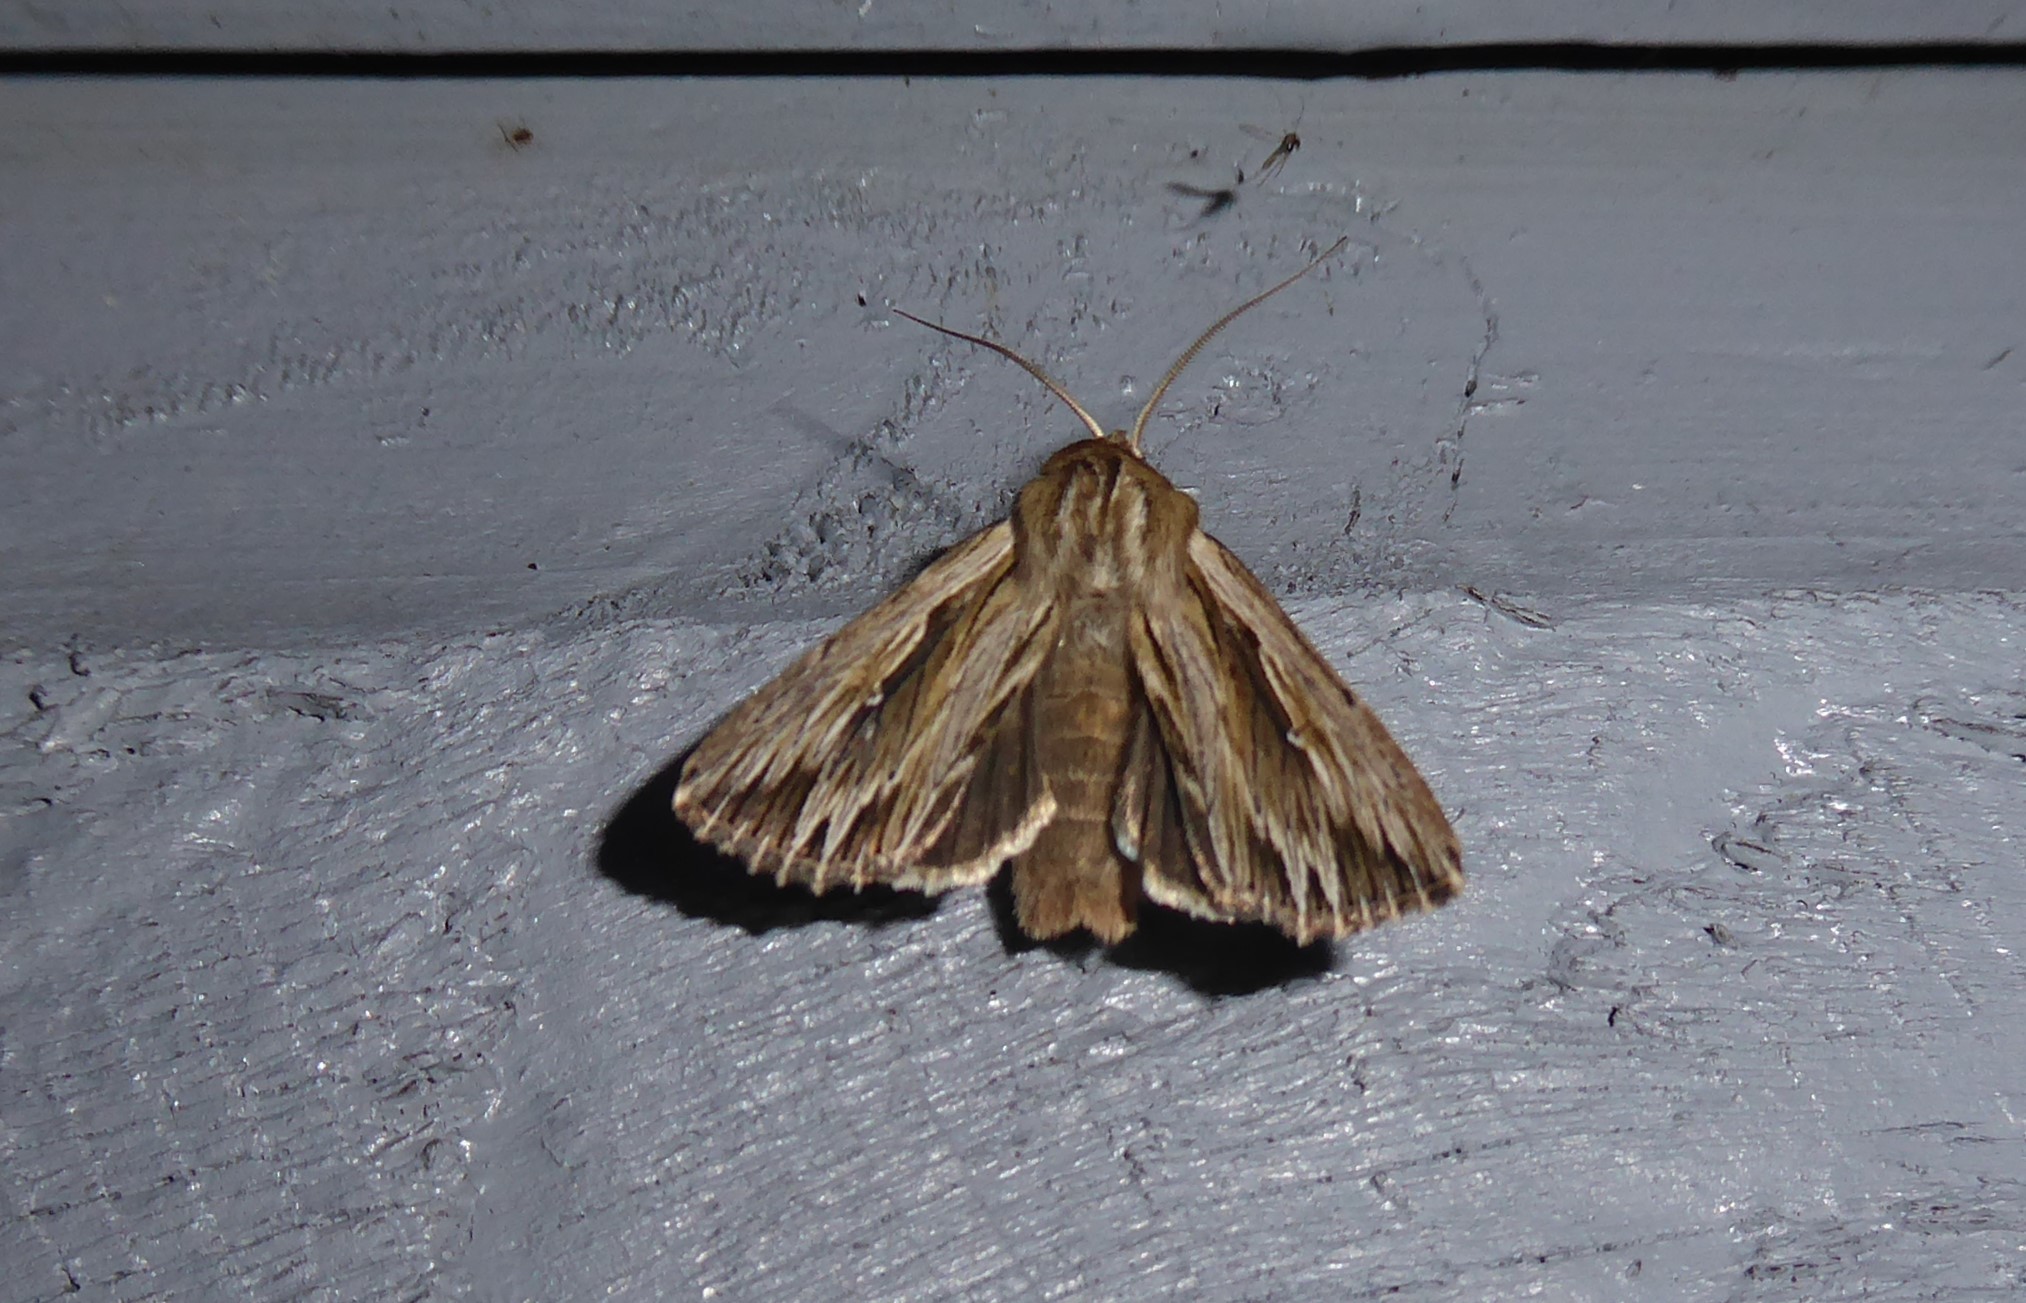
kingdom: Animalia
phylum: Arthropoda
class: Insecta
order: Lepidoptera
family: Noctuidae
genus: Persectania
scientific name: Persectania aversa
